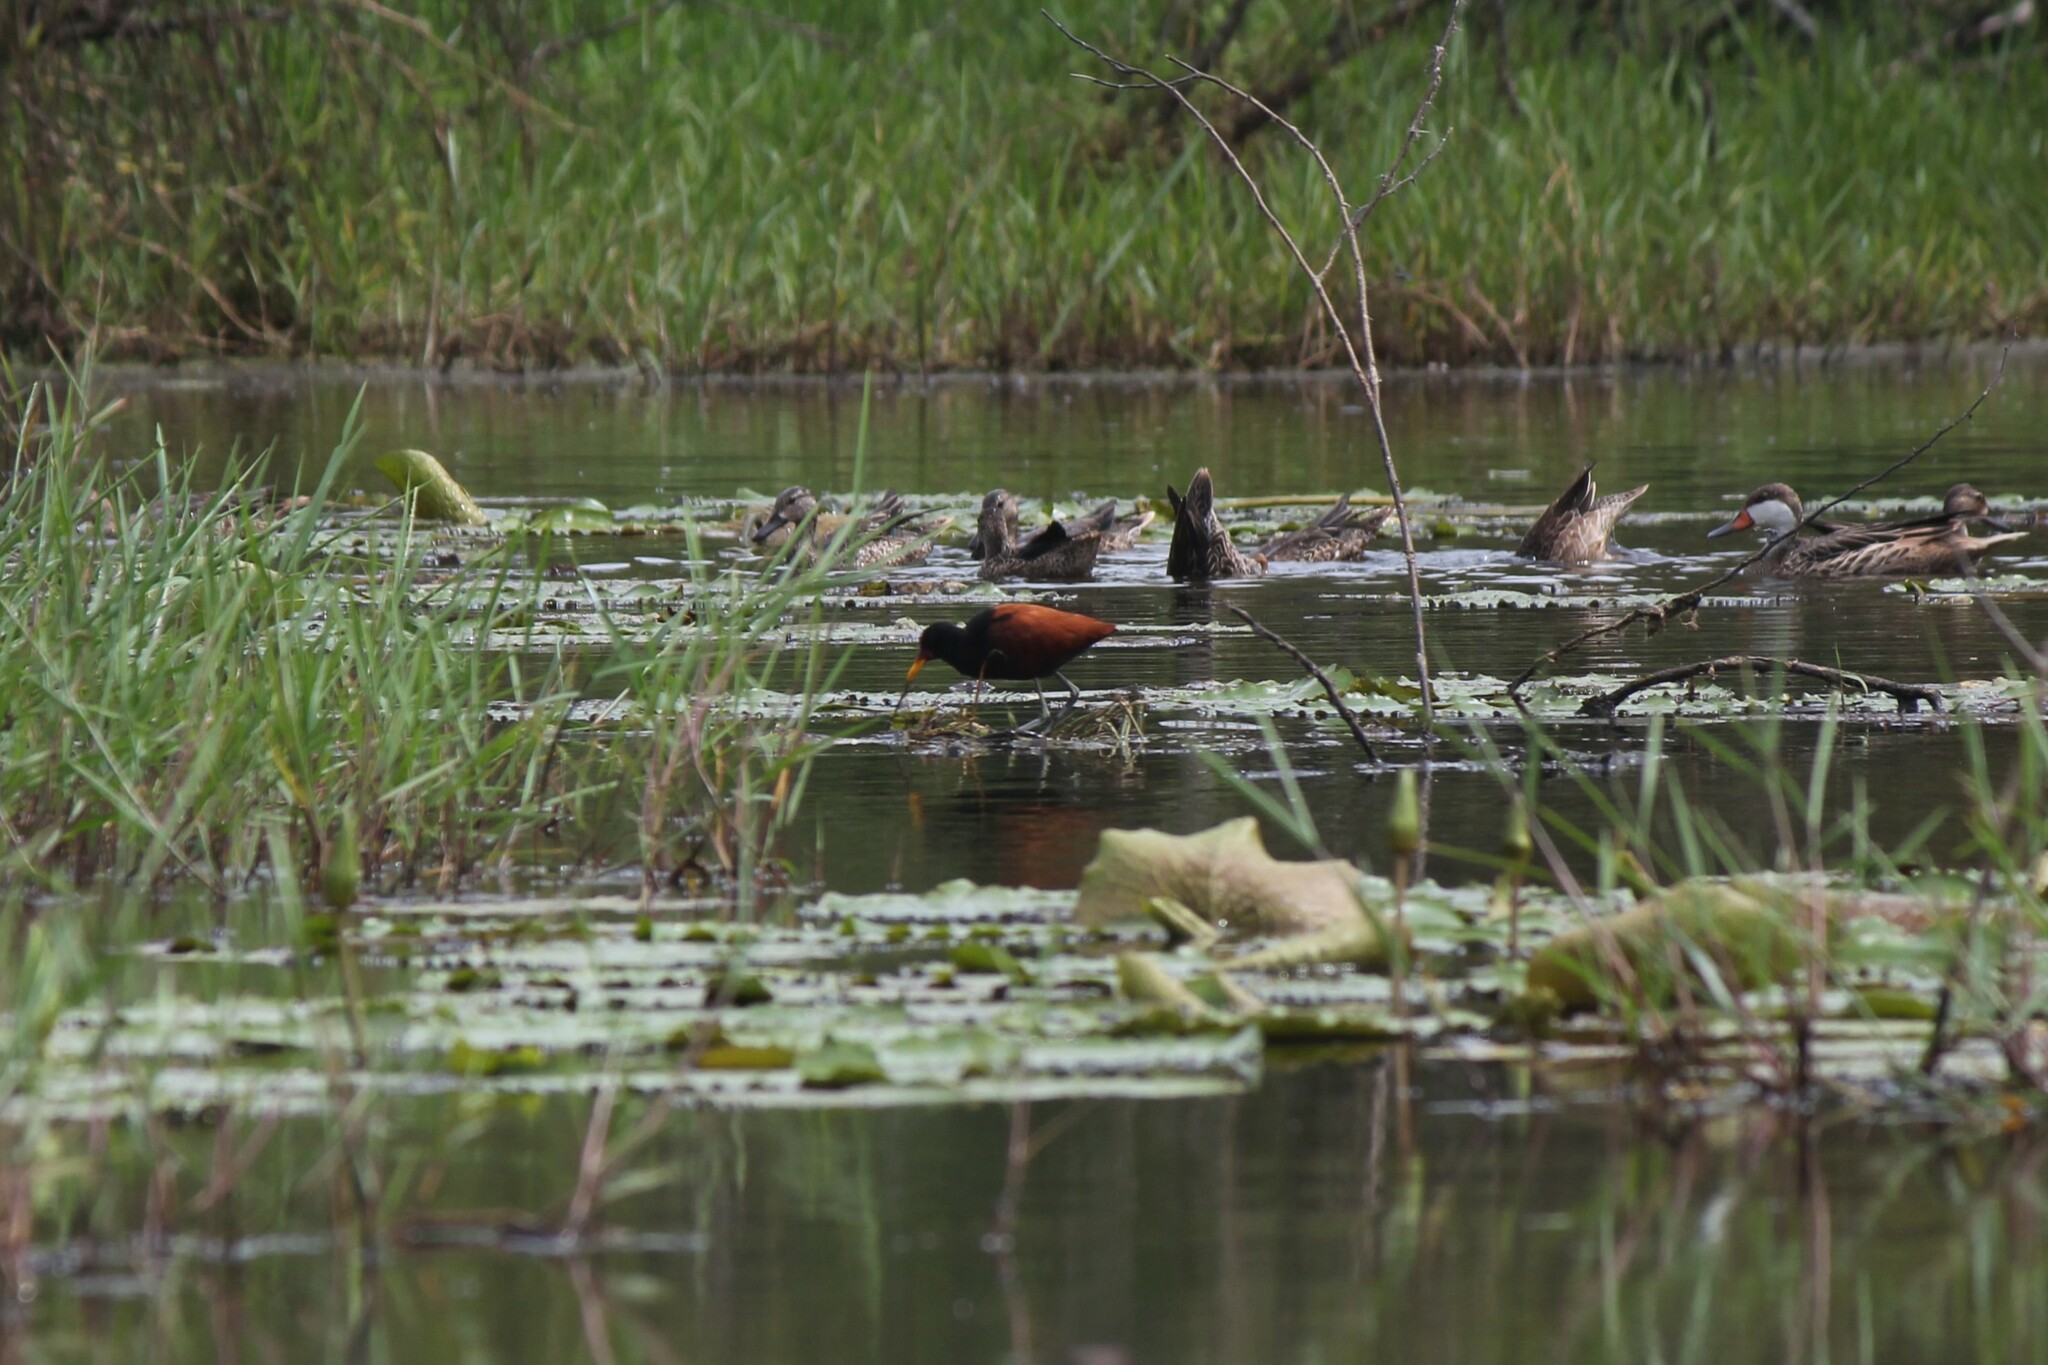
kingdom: Animalia
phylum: Chordata
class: Aves
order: Charadriiformes
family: Jacanidae
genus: Jacana
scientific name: Jacana jacana
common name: Wattled jacana
